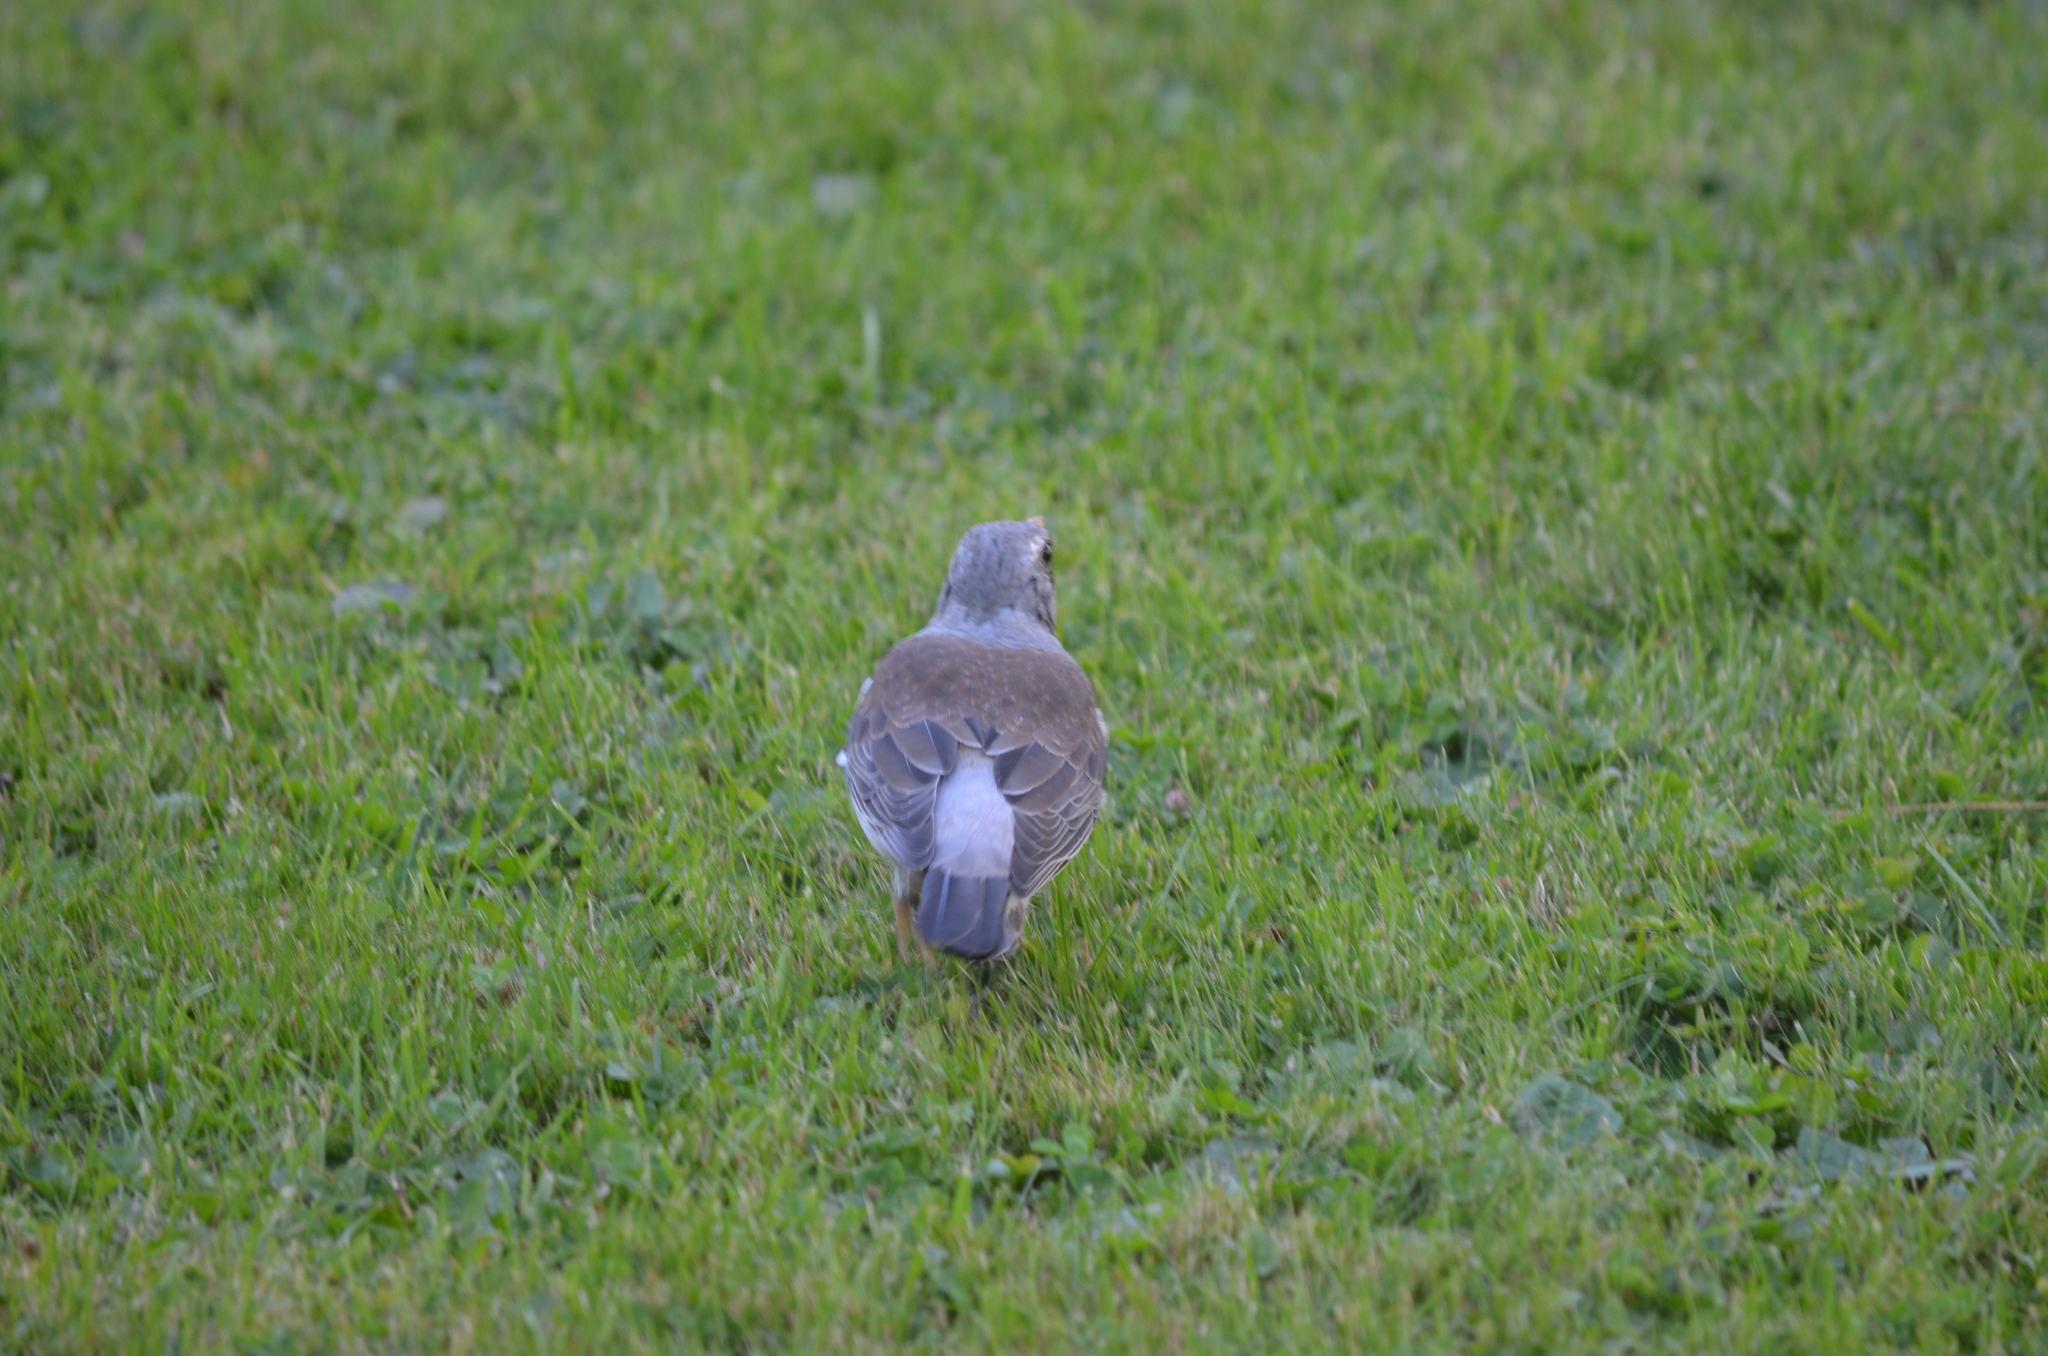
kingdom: Animalia
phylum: Chordata
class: Aves
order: Passeriformes
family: Turdidae
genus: Turdus
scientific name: Turdus pilaris
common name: Fieldfare
